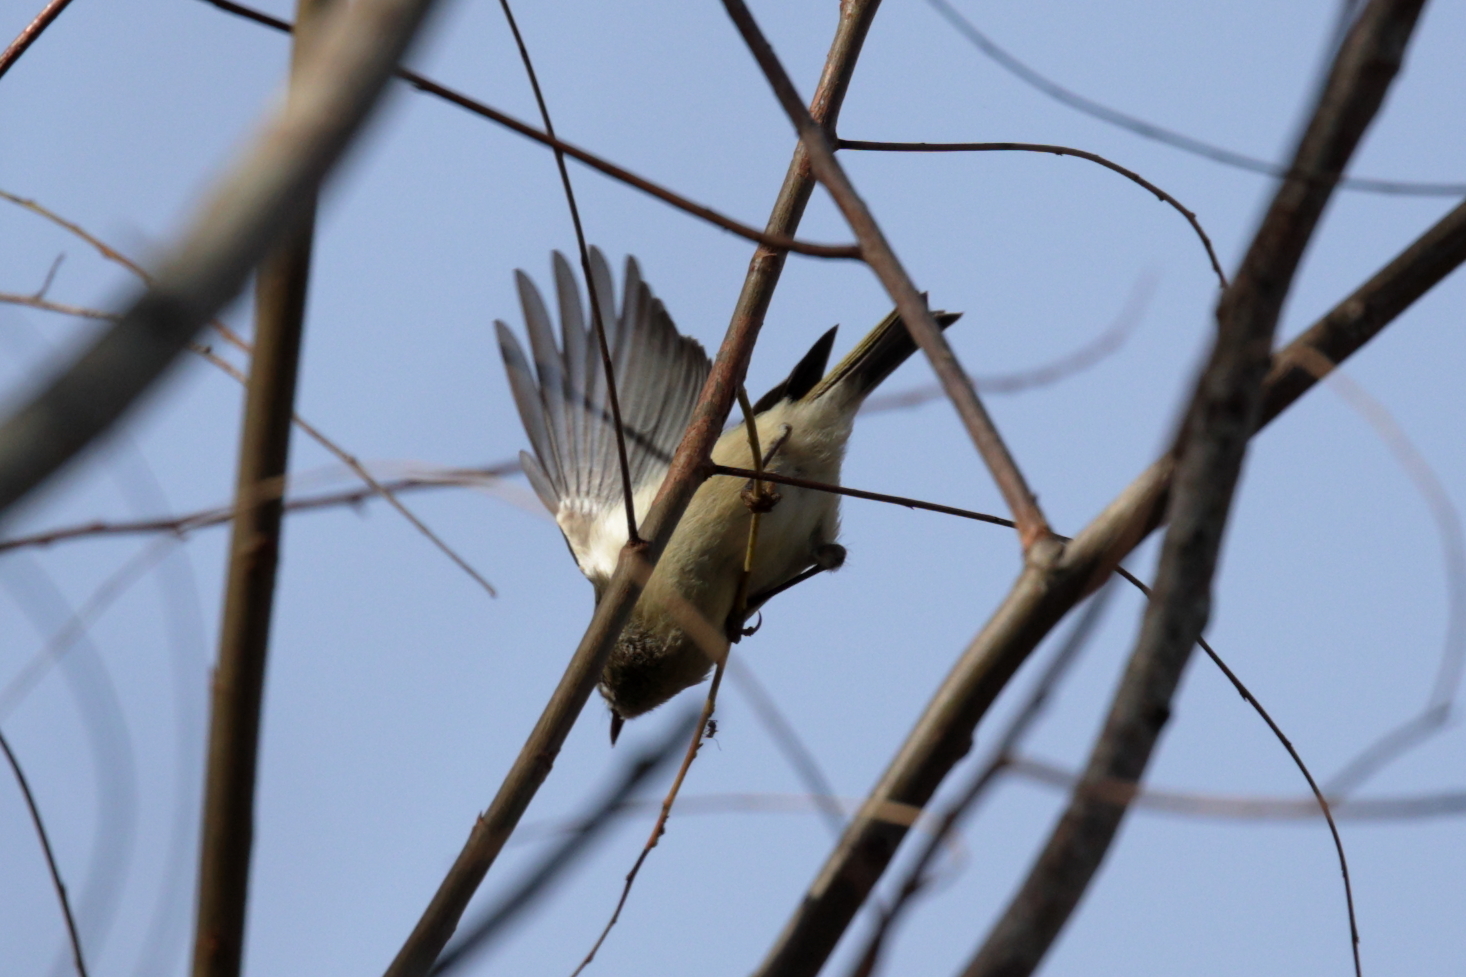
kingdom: Animalia
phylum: Chordata
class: Aves
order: Passeriformes
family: Regulidae
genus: Regulus
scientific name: Regulus calendula
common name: Ruby-crowned kinglet
